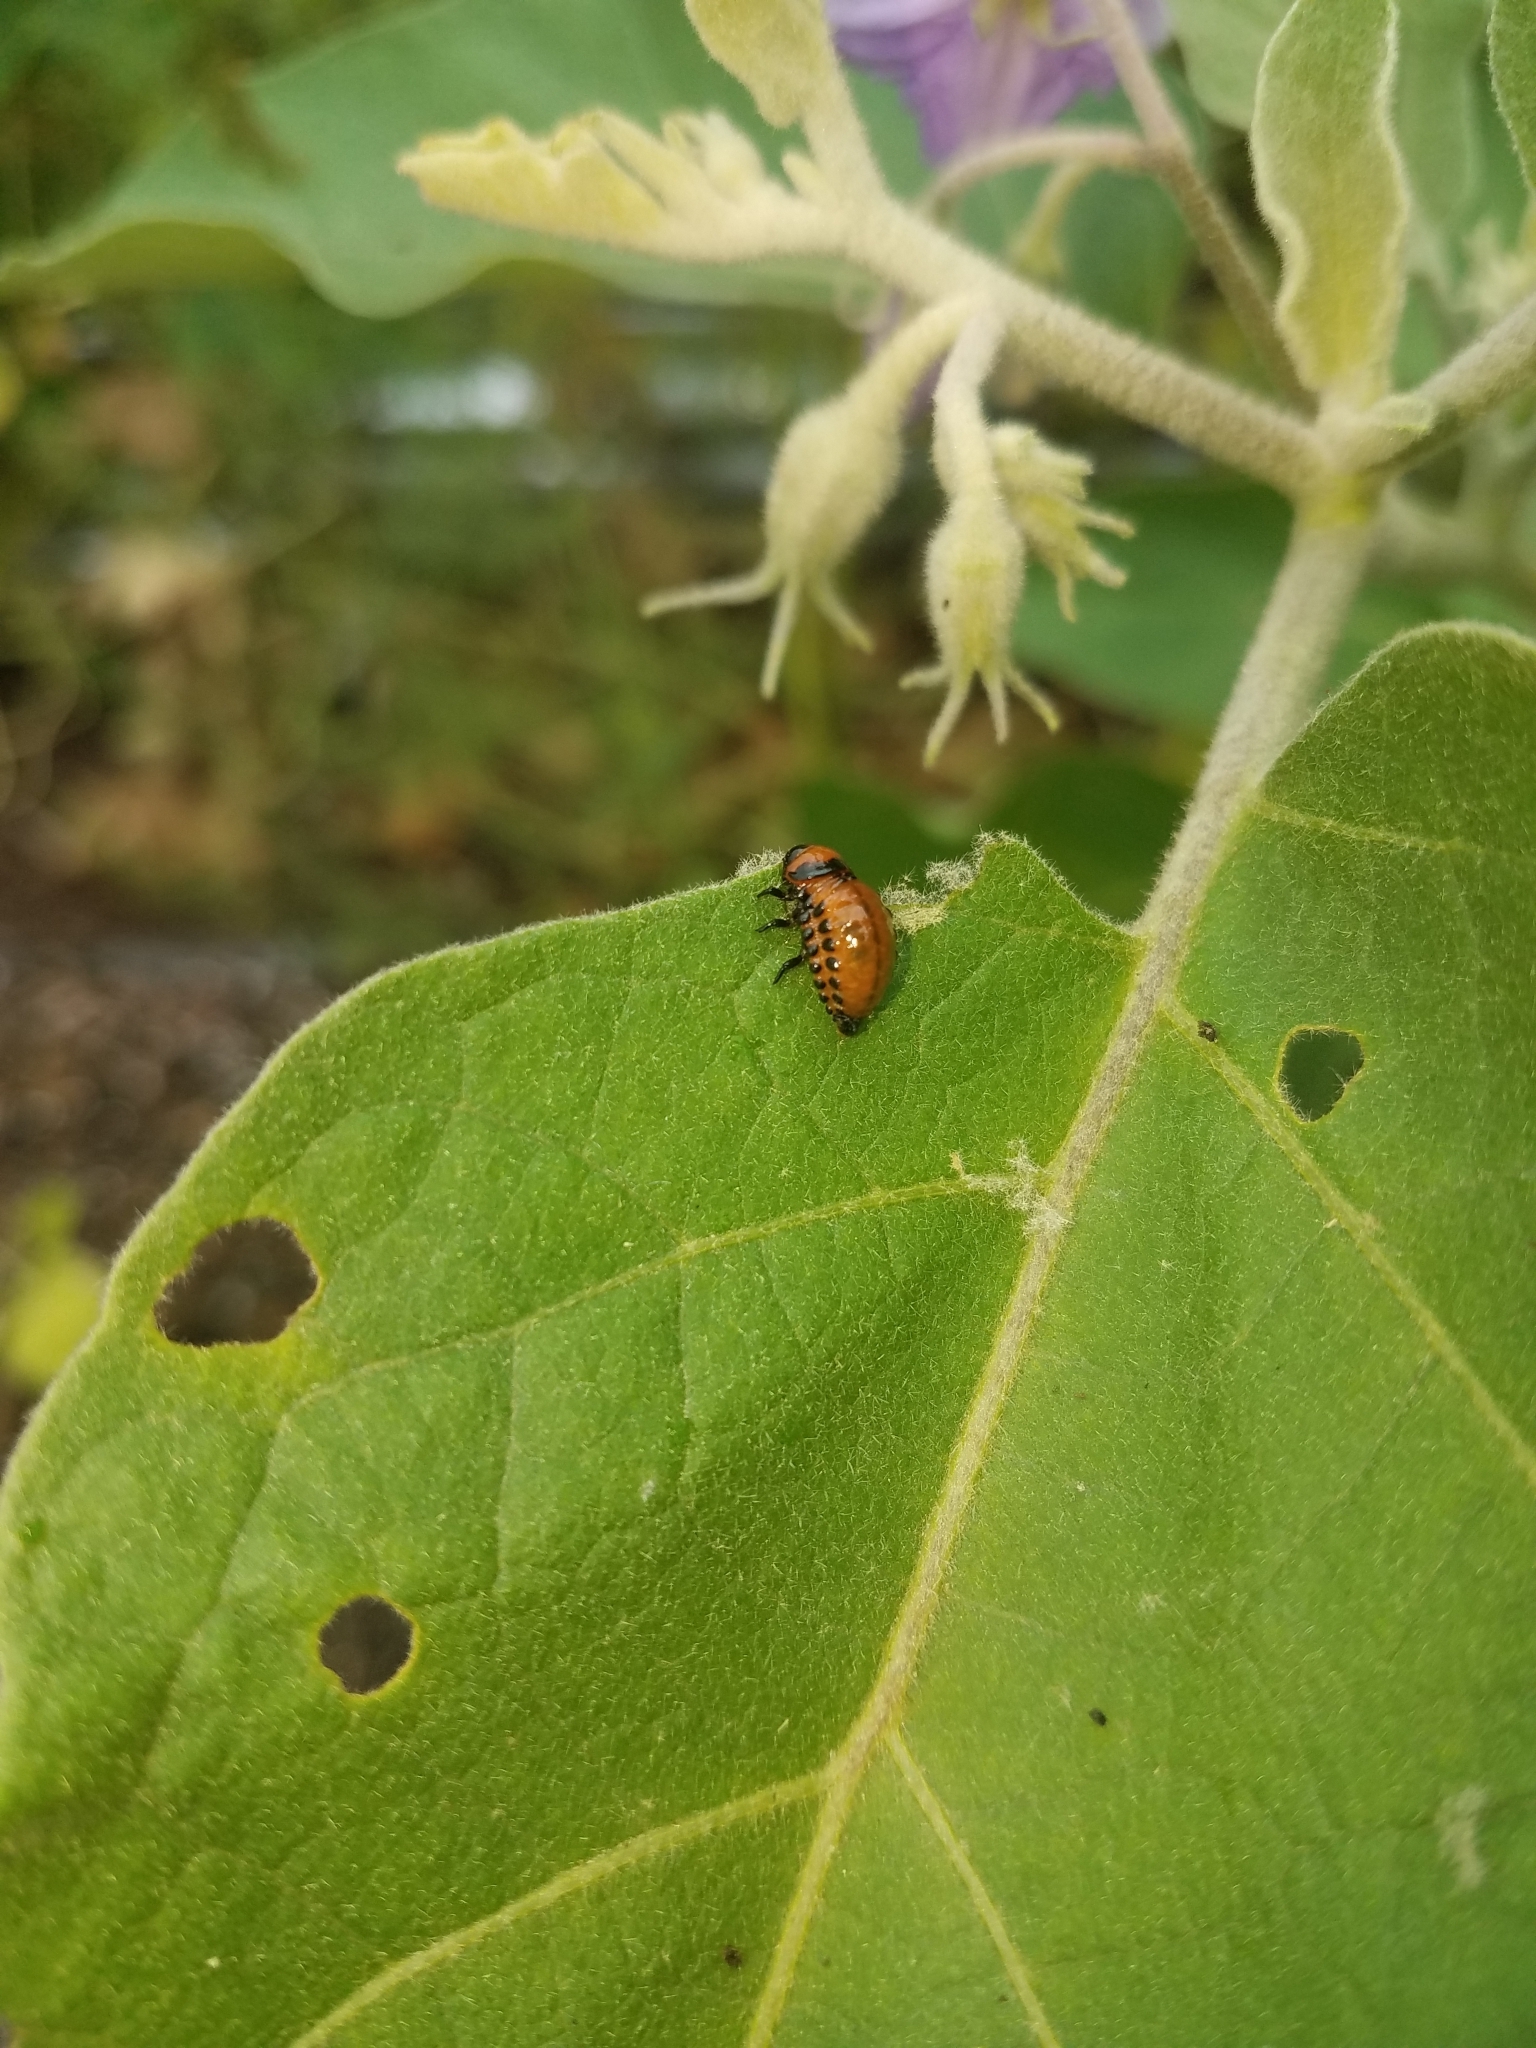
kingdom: Animalia
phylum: Arthropoda
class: Insecta
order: Coleoptera
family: Chrysomelidae
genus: Leptinotarsa
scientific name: Leptinotarsa decemlineata
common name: Colorado potato beetle
